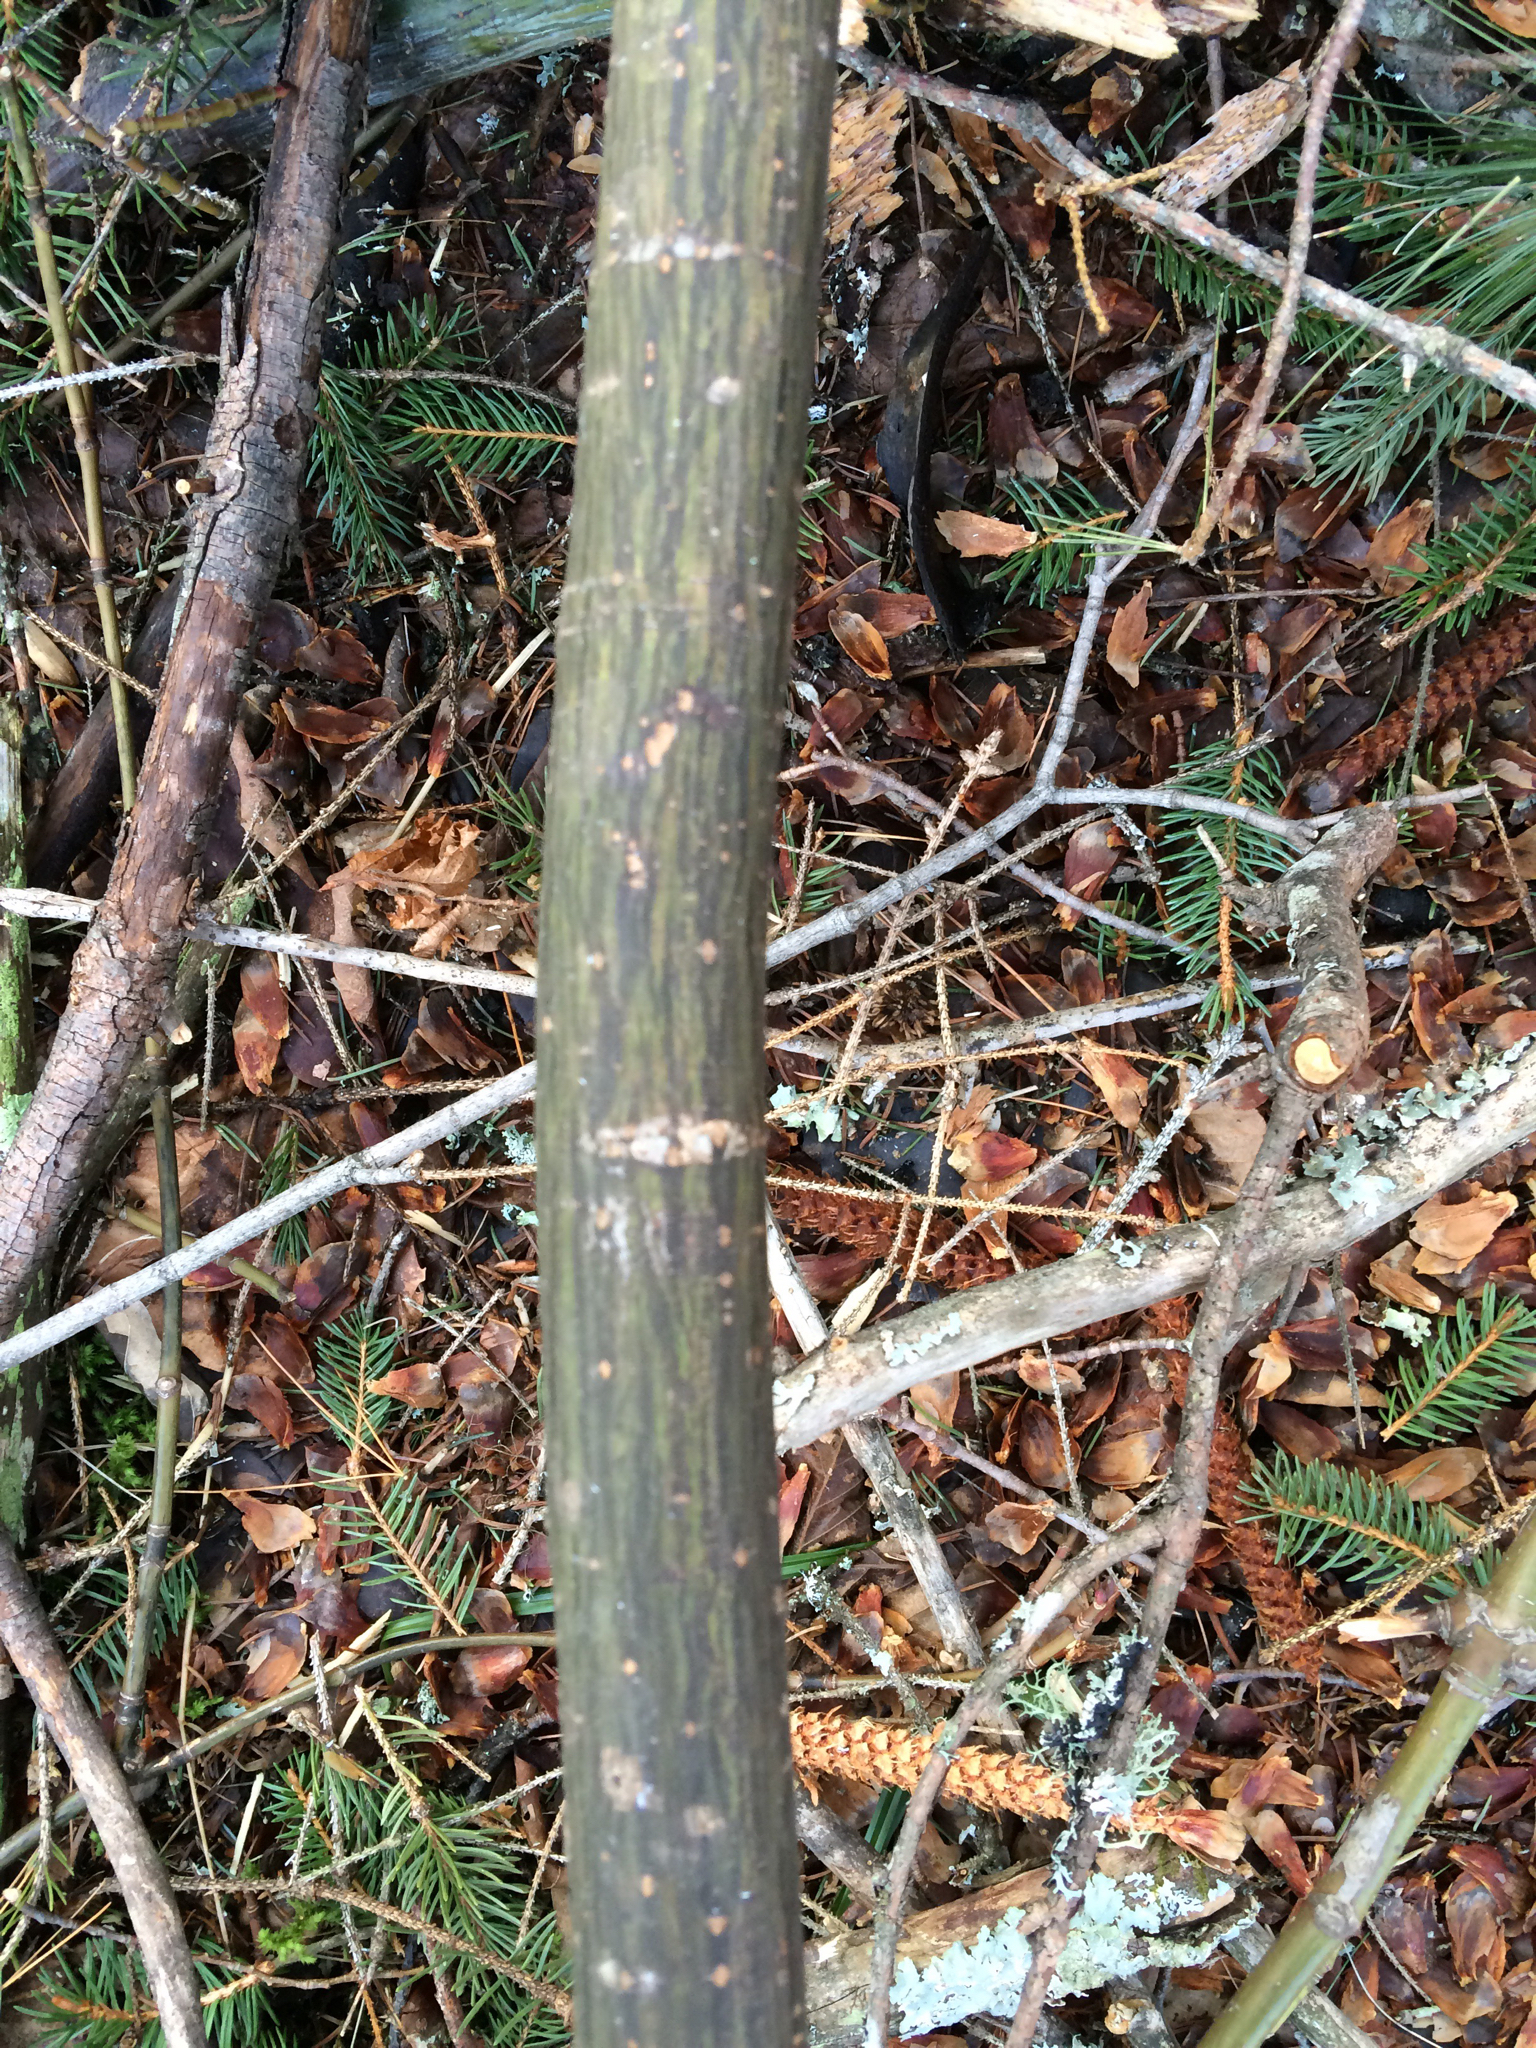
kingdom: Plantae
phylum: Tracheophyta
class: Magnoliopsida
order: Sapindales
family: Sapindaceae
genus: Acer
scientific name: Acer pensylvanicum
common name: Moosewood
